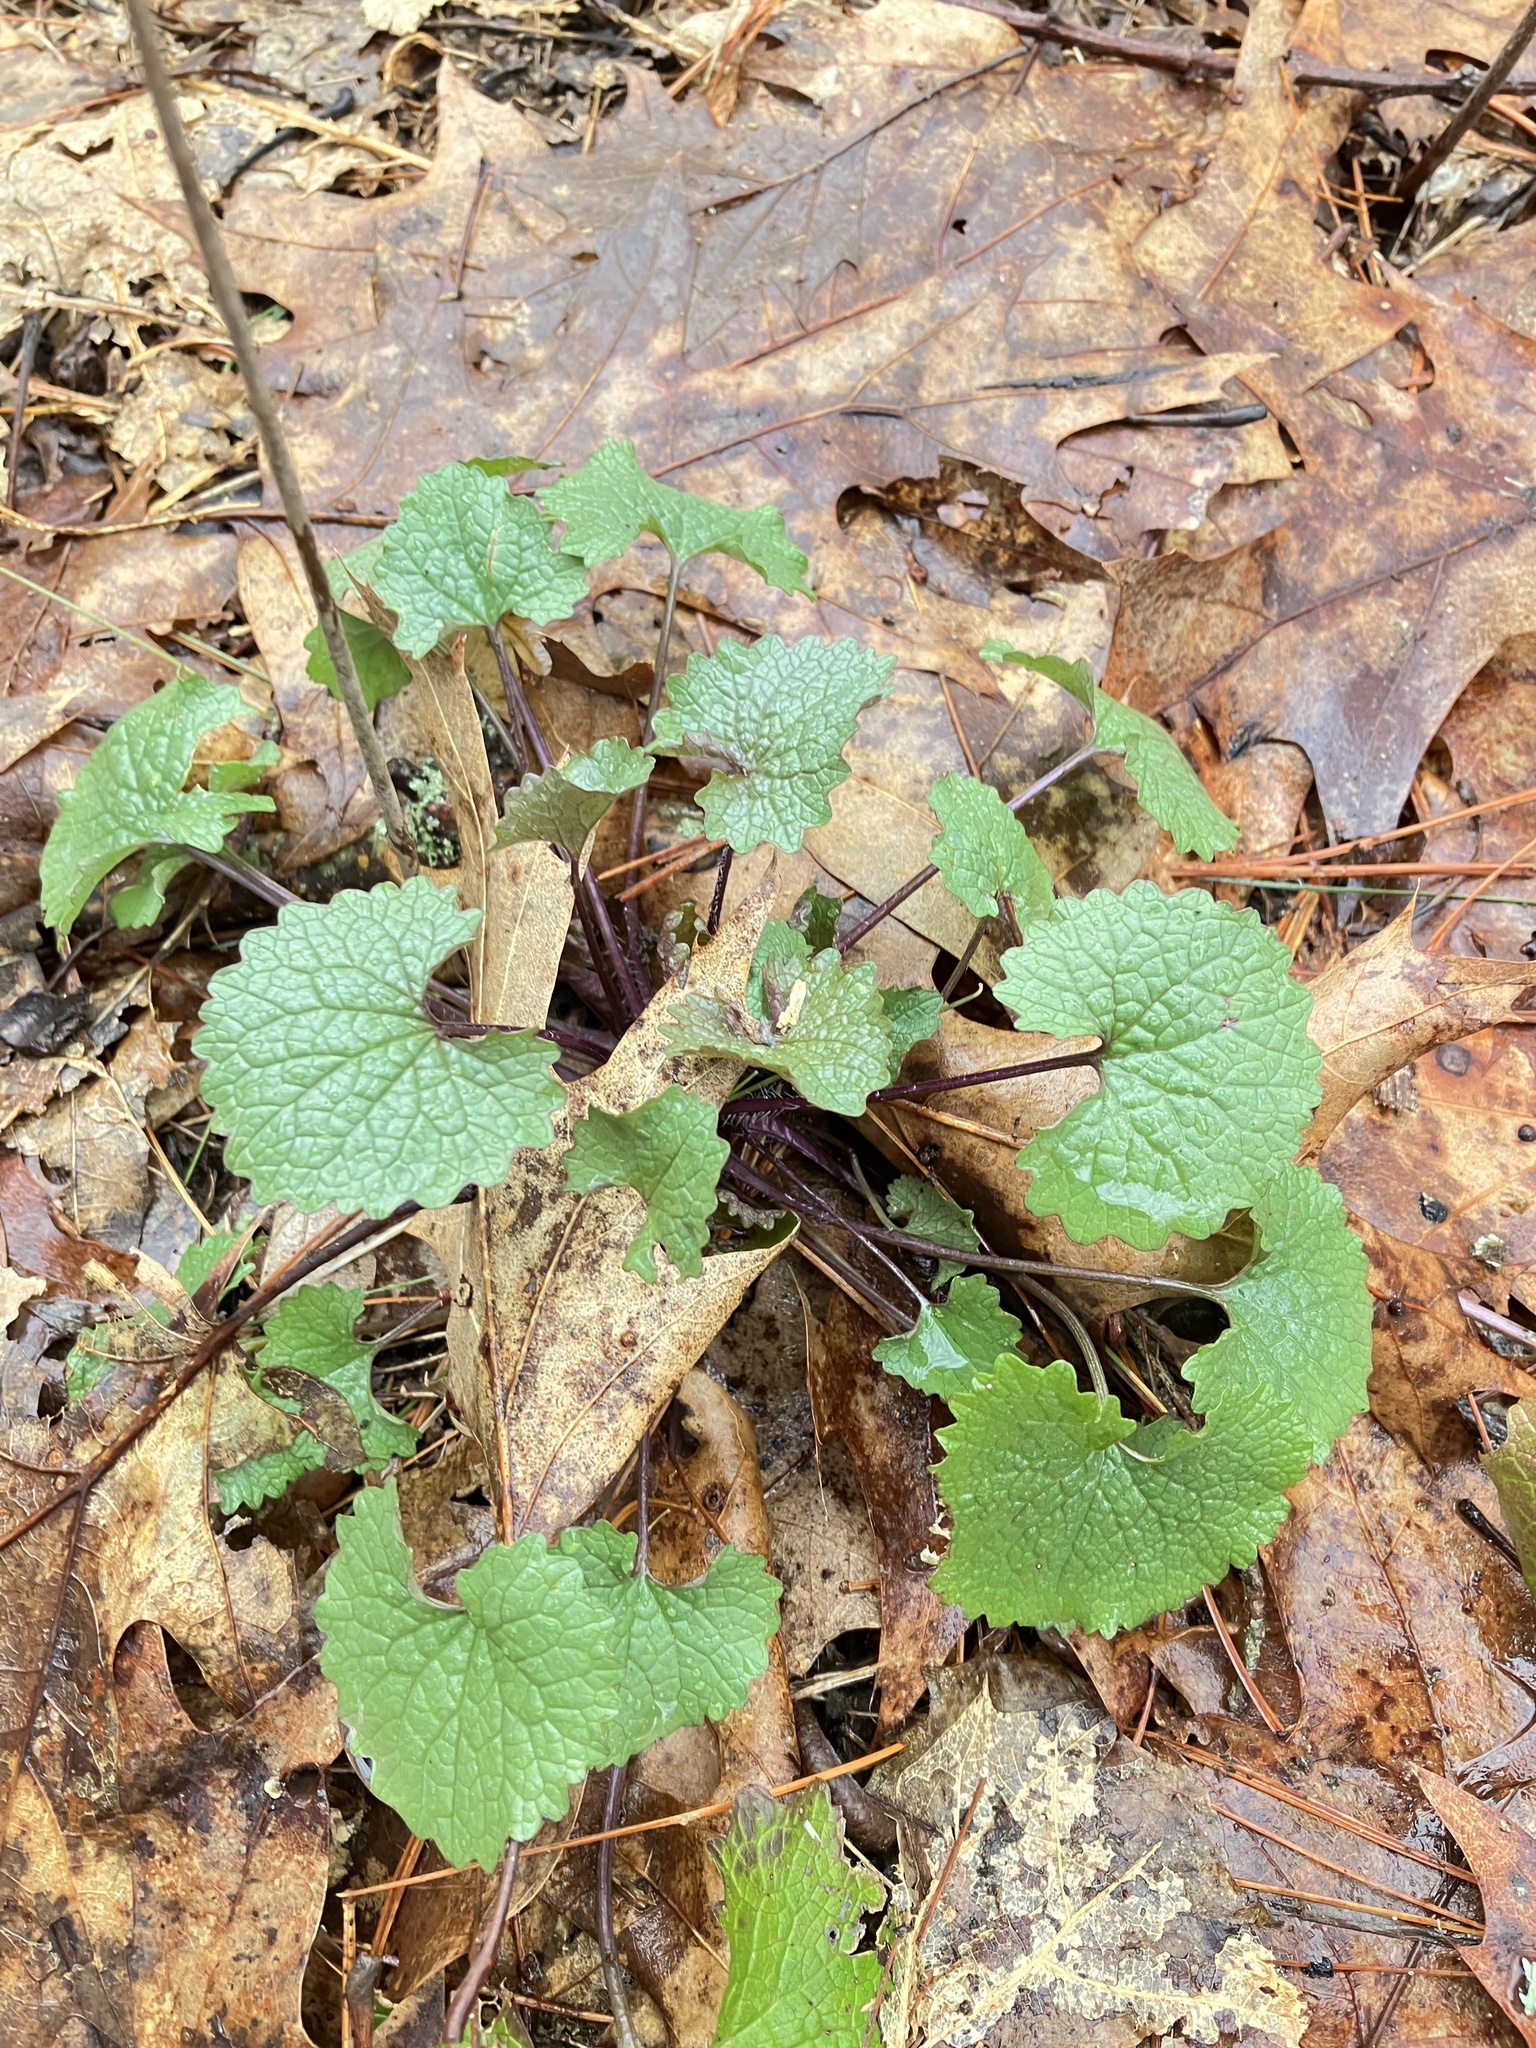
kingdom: Plantae
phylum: Tracheophyta
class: Magnoliopsida
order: Brassicales
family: Brassicaceae
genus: Alliaria
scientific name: Alliaria petiolata
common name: Garlic mustard
